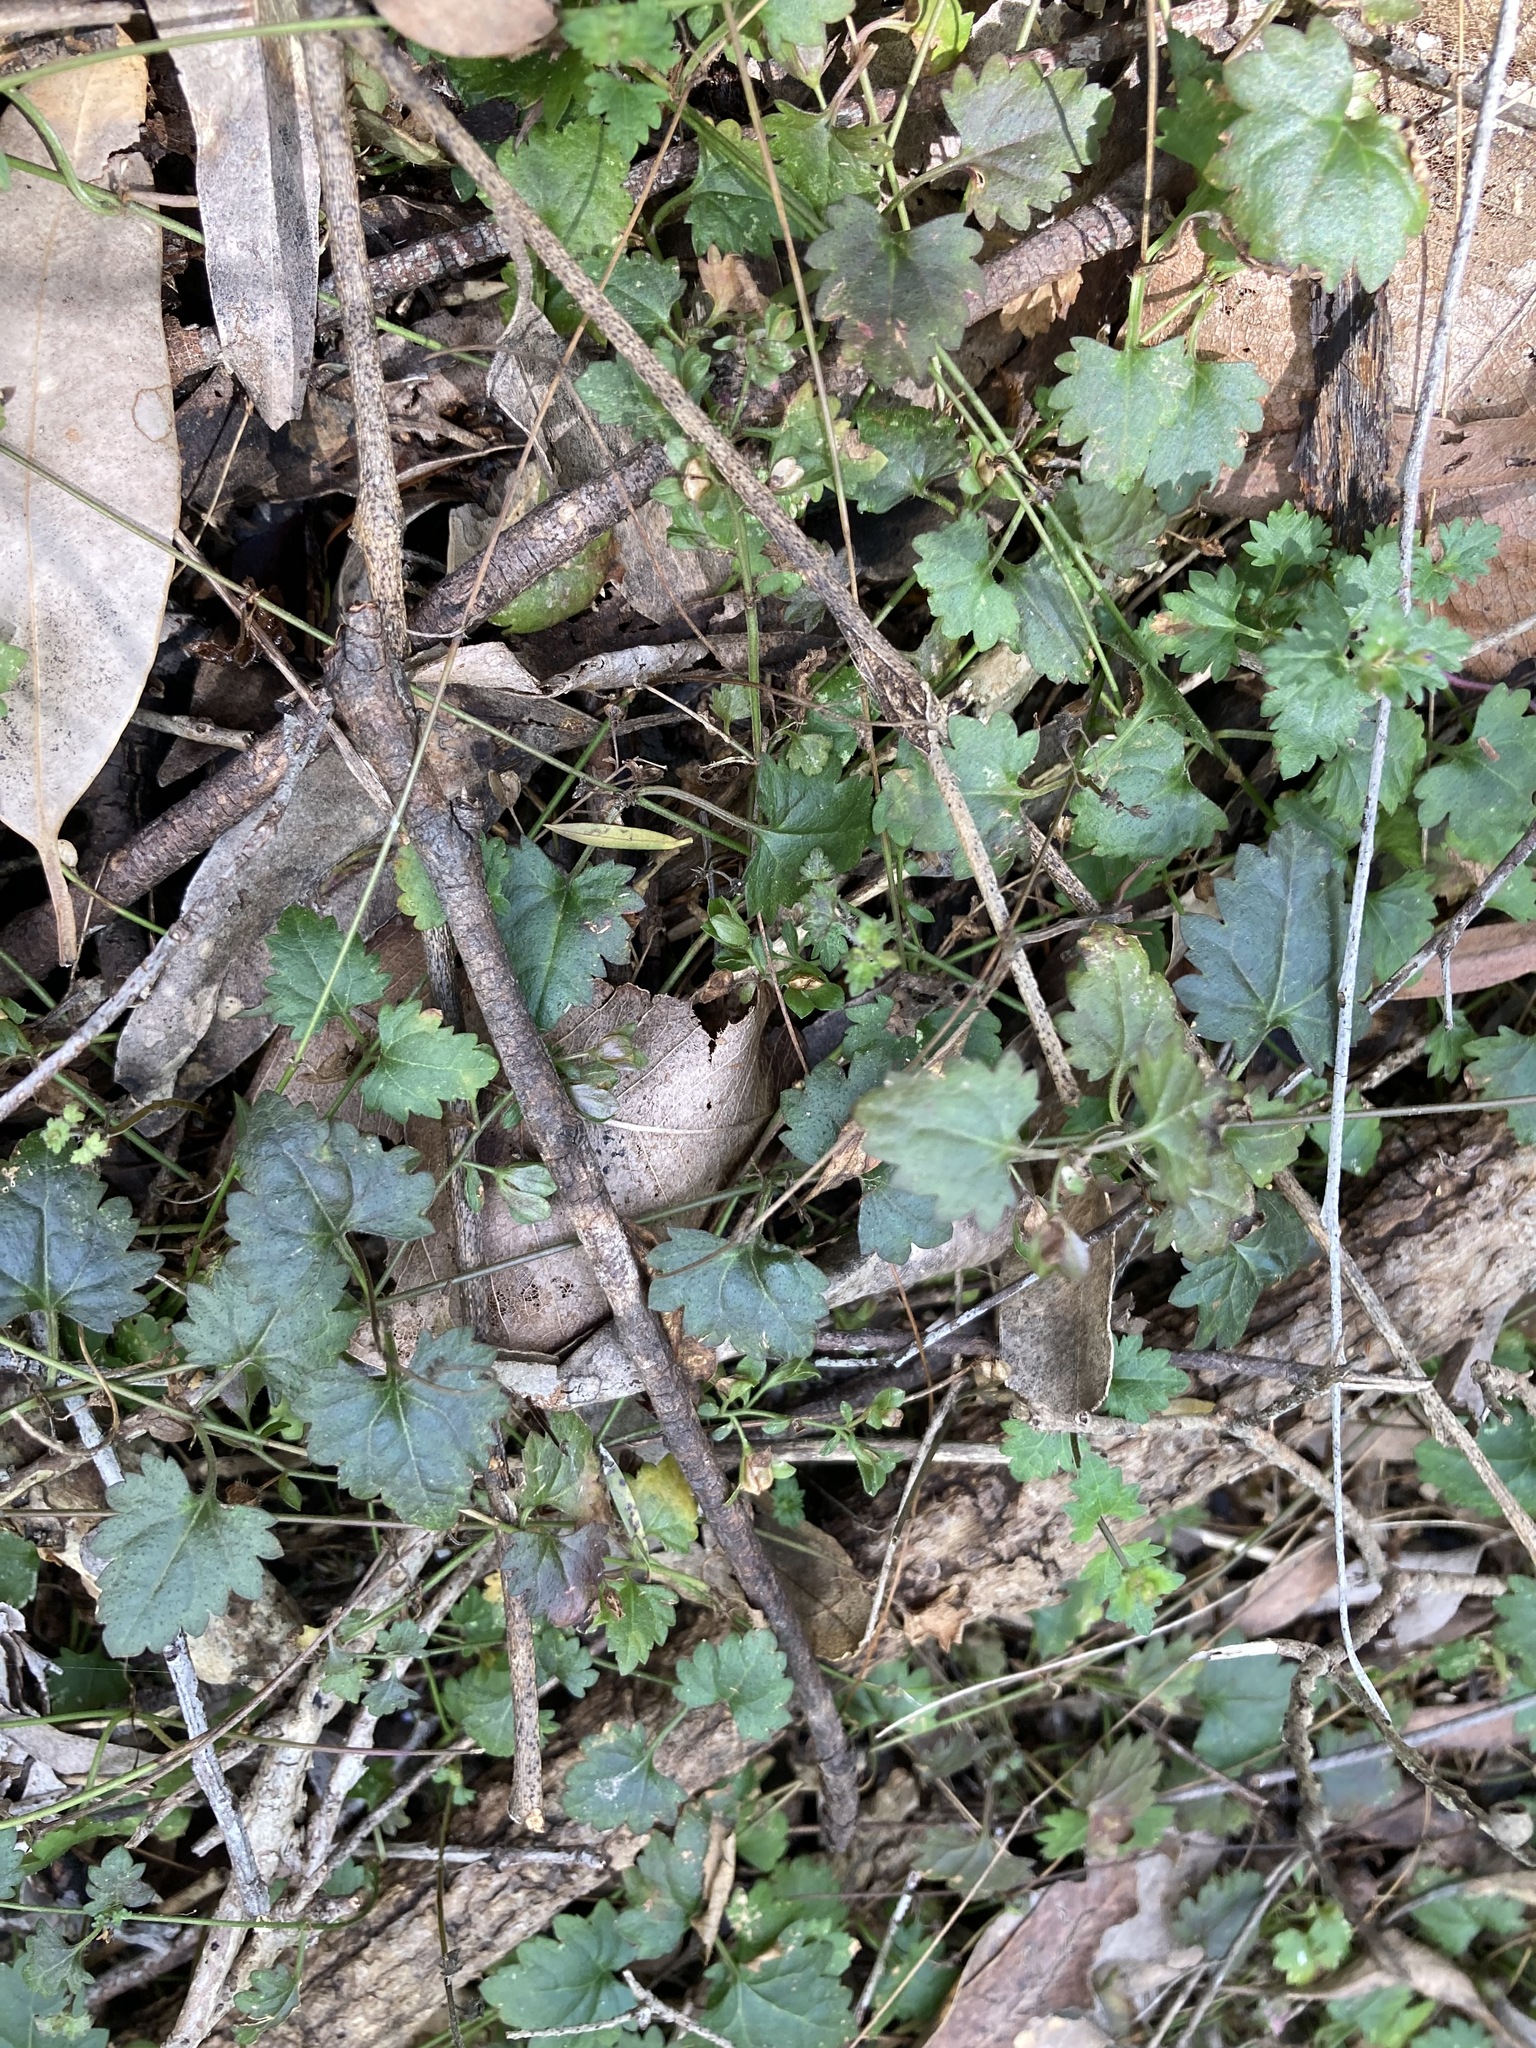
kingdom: Plantae
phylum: Tracheophyta
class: Magnoliopsida
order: Lamiales
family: Plantaginaceae
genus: Veronica
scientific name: Veronica plebeia
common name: Speedwell
